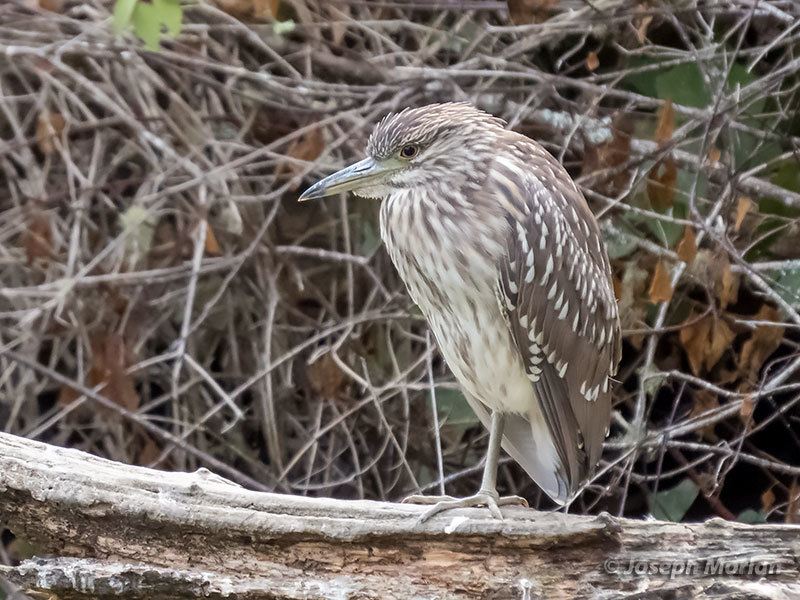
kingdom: Animalia
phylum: Chordata
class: Aves
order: Pelecaniformes
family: Ardeidae
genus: Nycticorax
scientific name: Nycticorax nycticorax
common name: Black-crowned night heron
